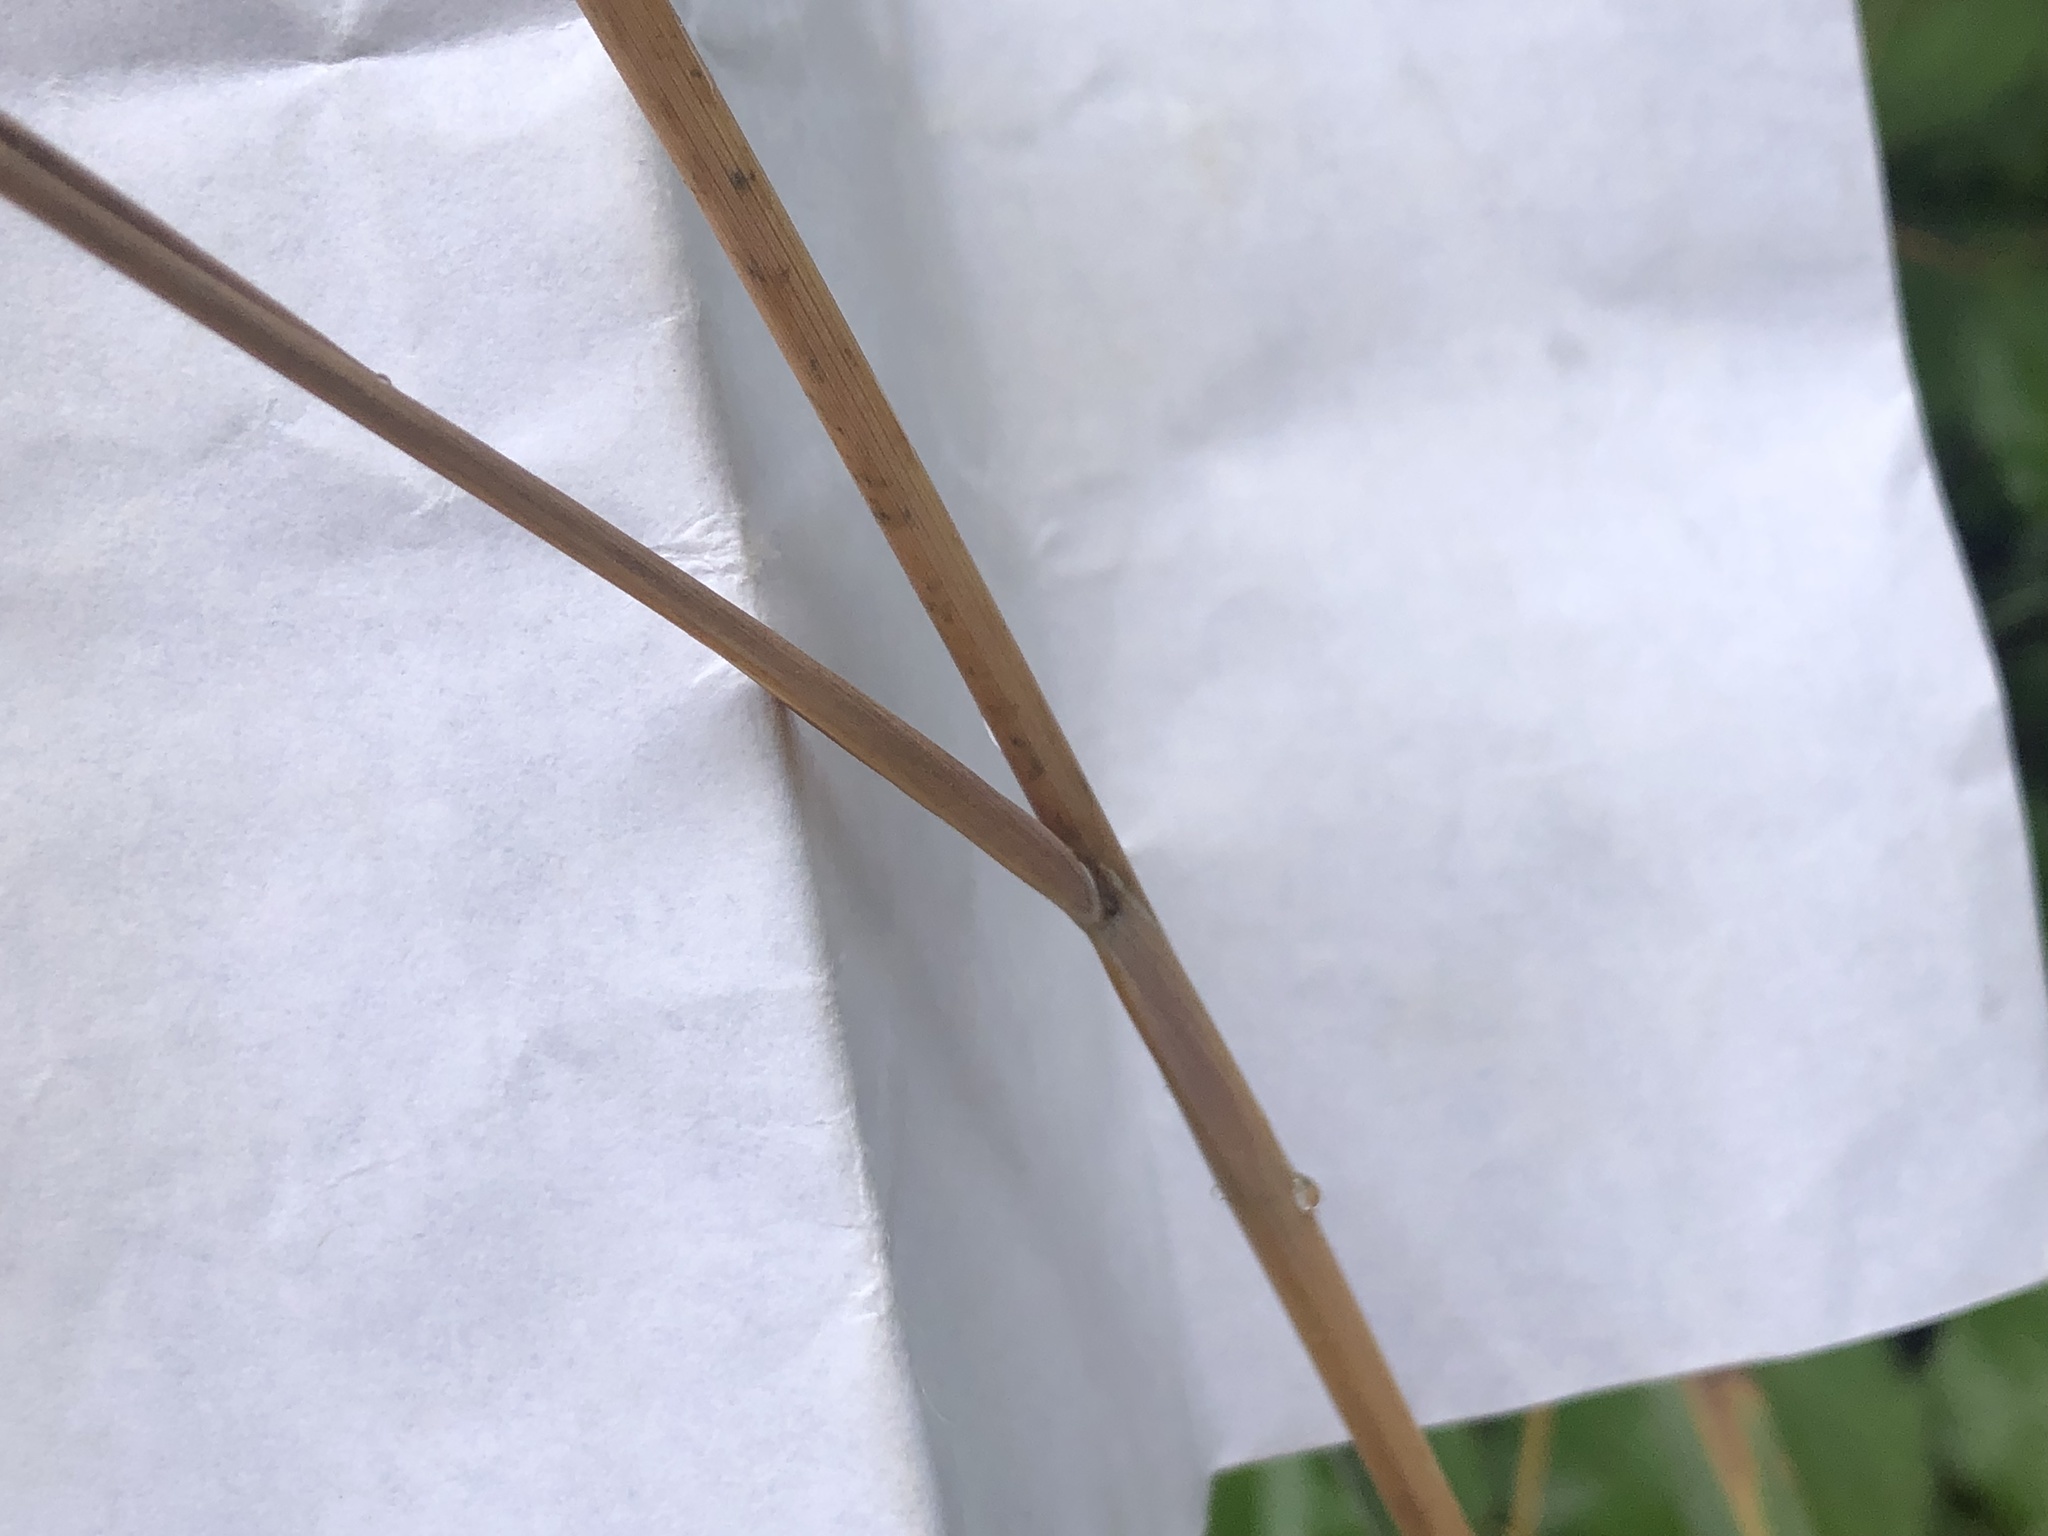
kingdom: Plantae
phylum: Tracheophyta
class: Liliopsida
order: Poales
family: Poaceae
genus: Sorghastrum
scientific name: Sorghastrum nutans
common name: Indian grass
